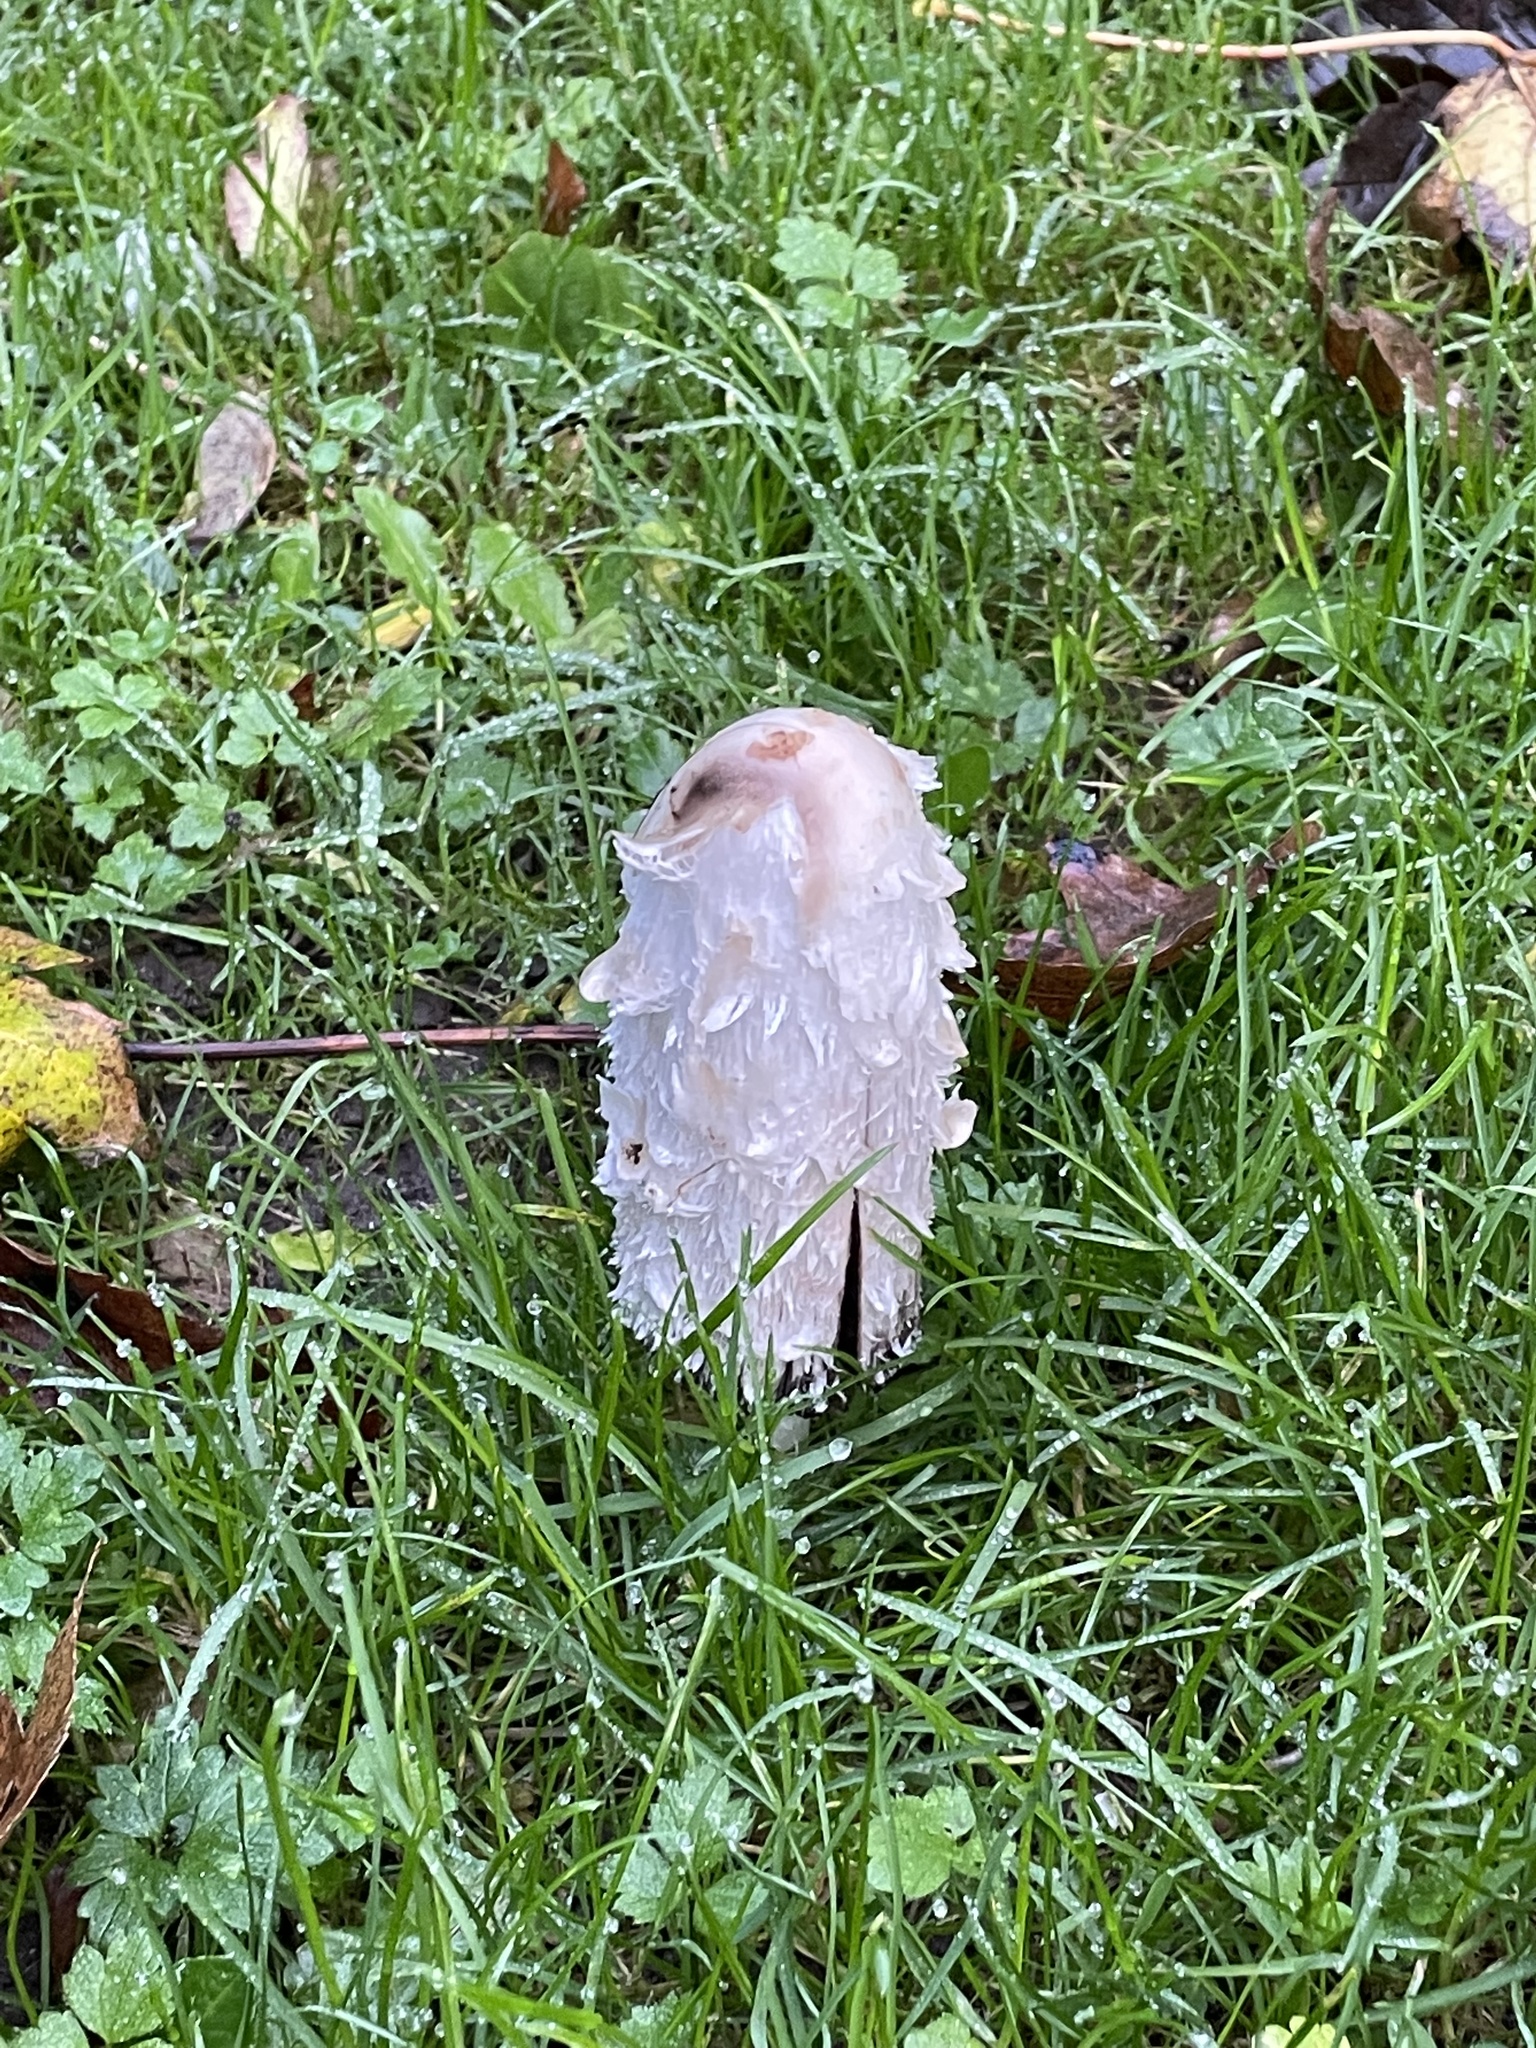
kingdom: Fungi
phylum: Basidiomycota
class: Agaricomycetes
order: Agaricales
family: Agaricaceae
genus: Coprinus
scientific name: Coprinus comatus
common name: Lawyer's wig
